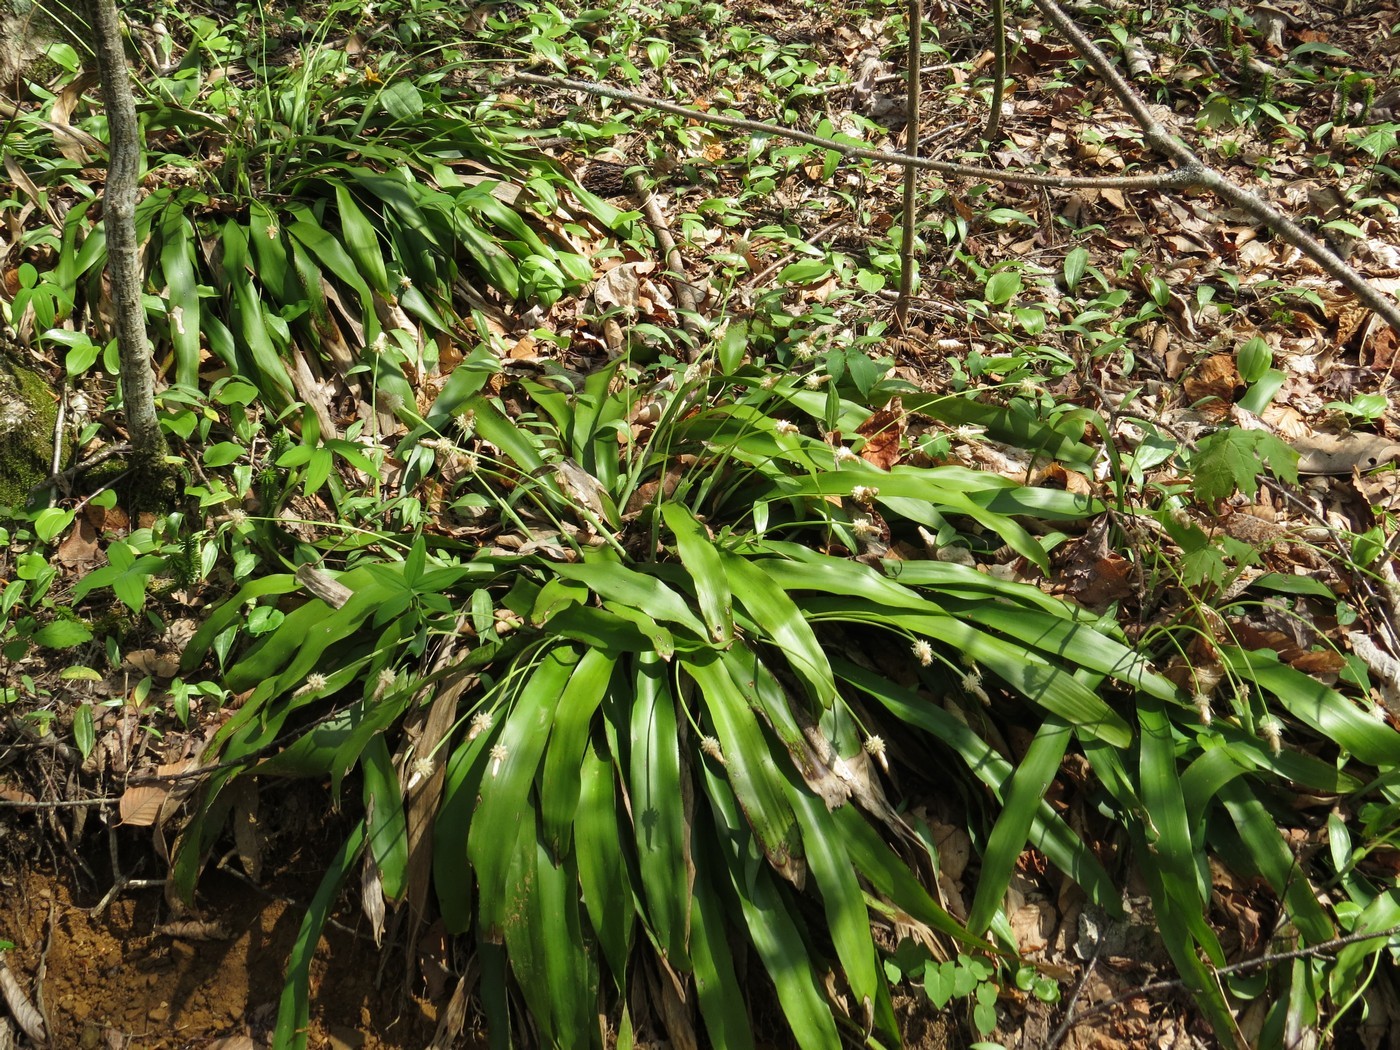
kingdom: Plantae
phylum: Tracheophyta
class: Liliopsida
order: Poales
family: Cyperaceae
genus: Carex
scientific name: Carex fraseriana
